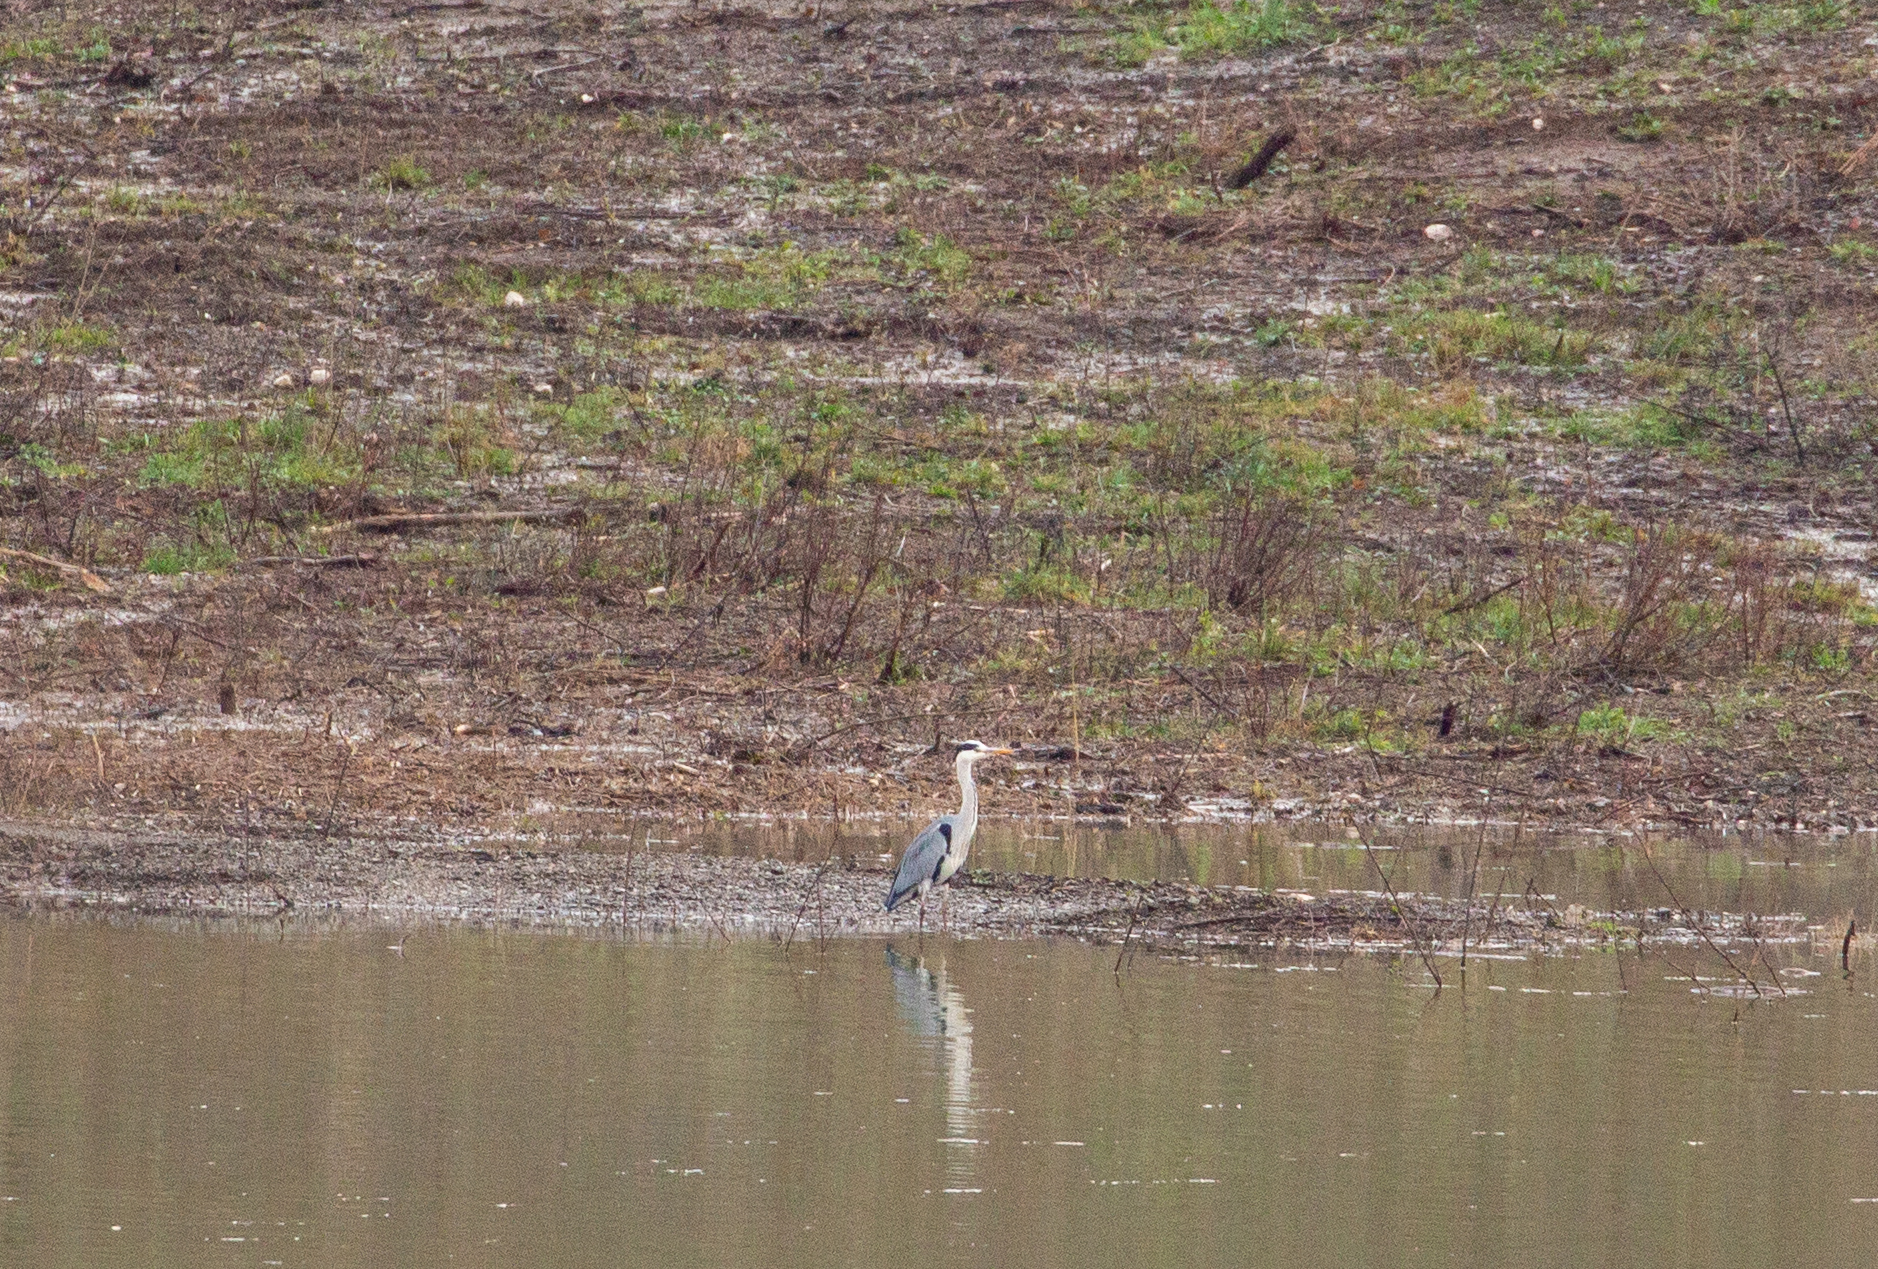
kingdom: Animalia
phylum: Chordata
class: Aves
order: Pelecaniformes
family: Ardeidae
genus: Ardea
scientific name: Ardea cinerea
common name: Grey heron
